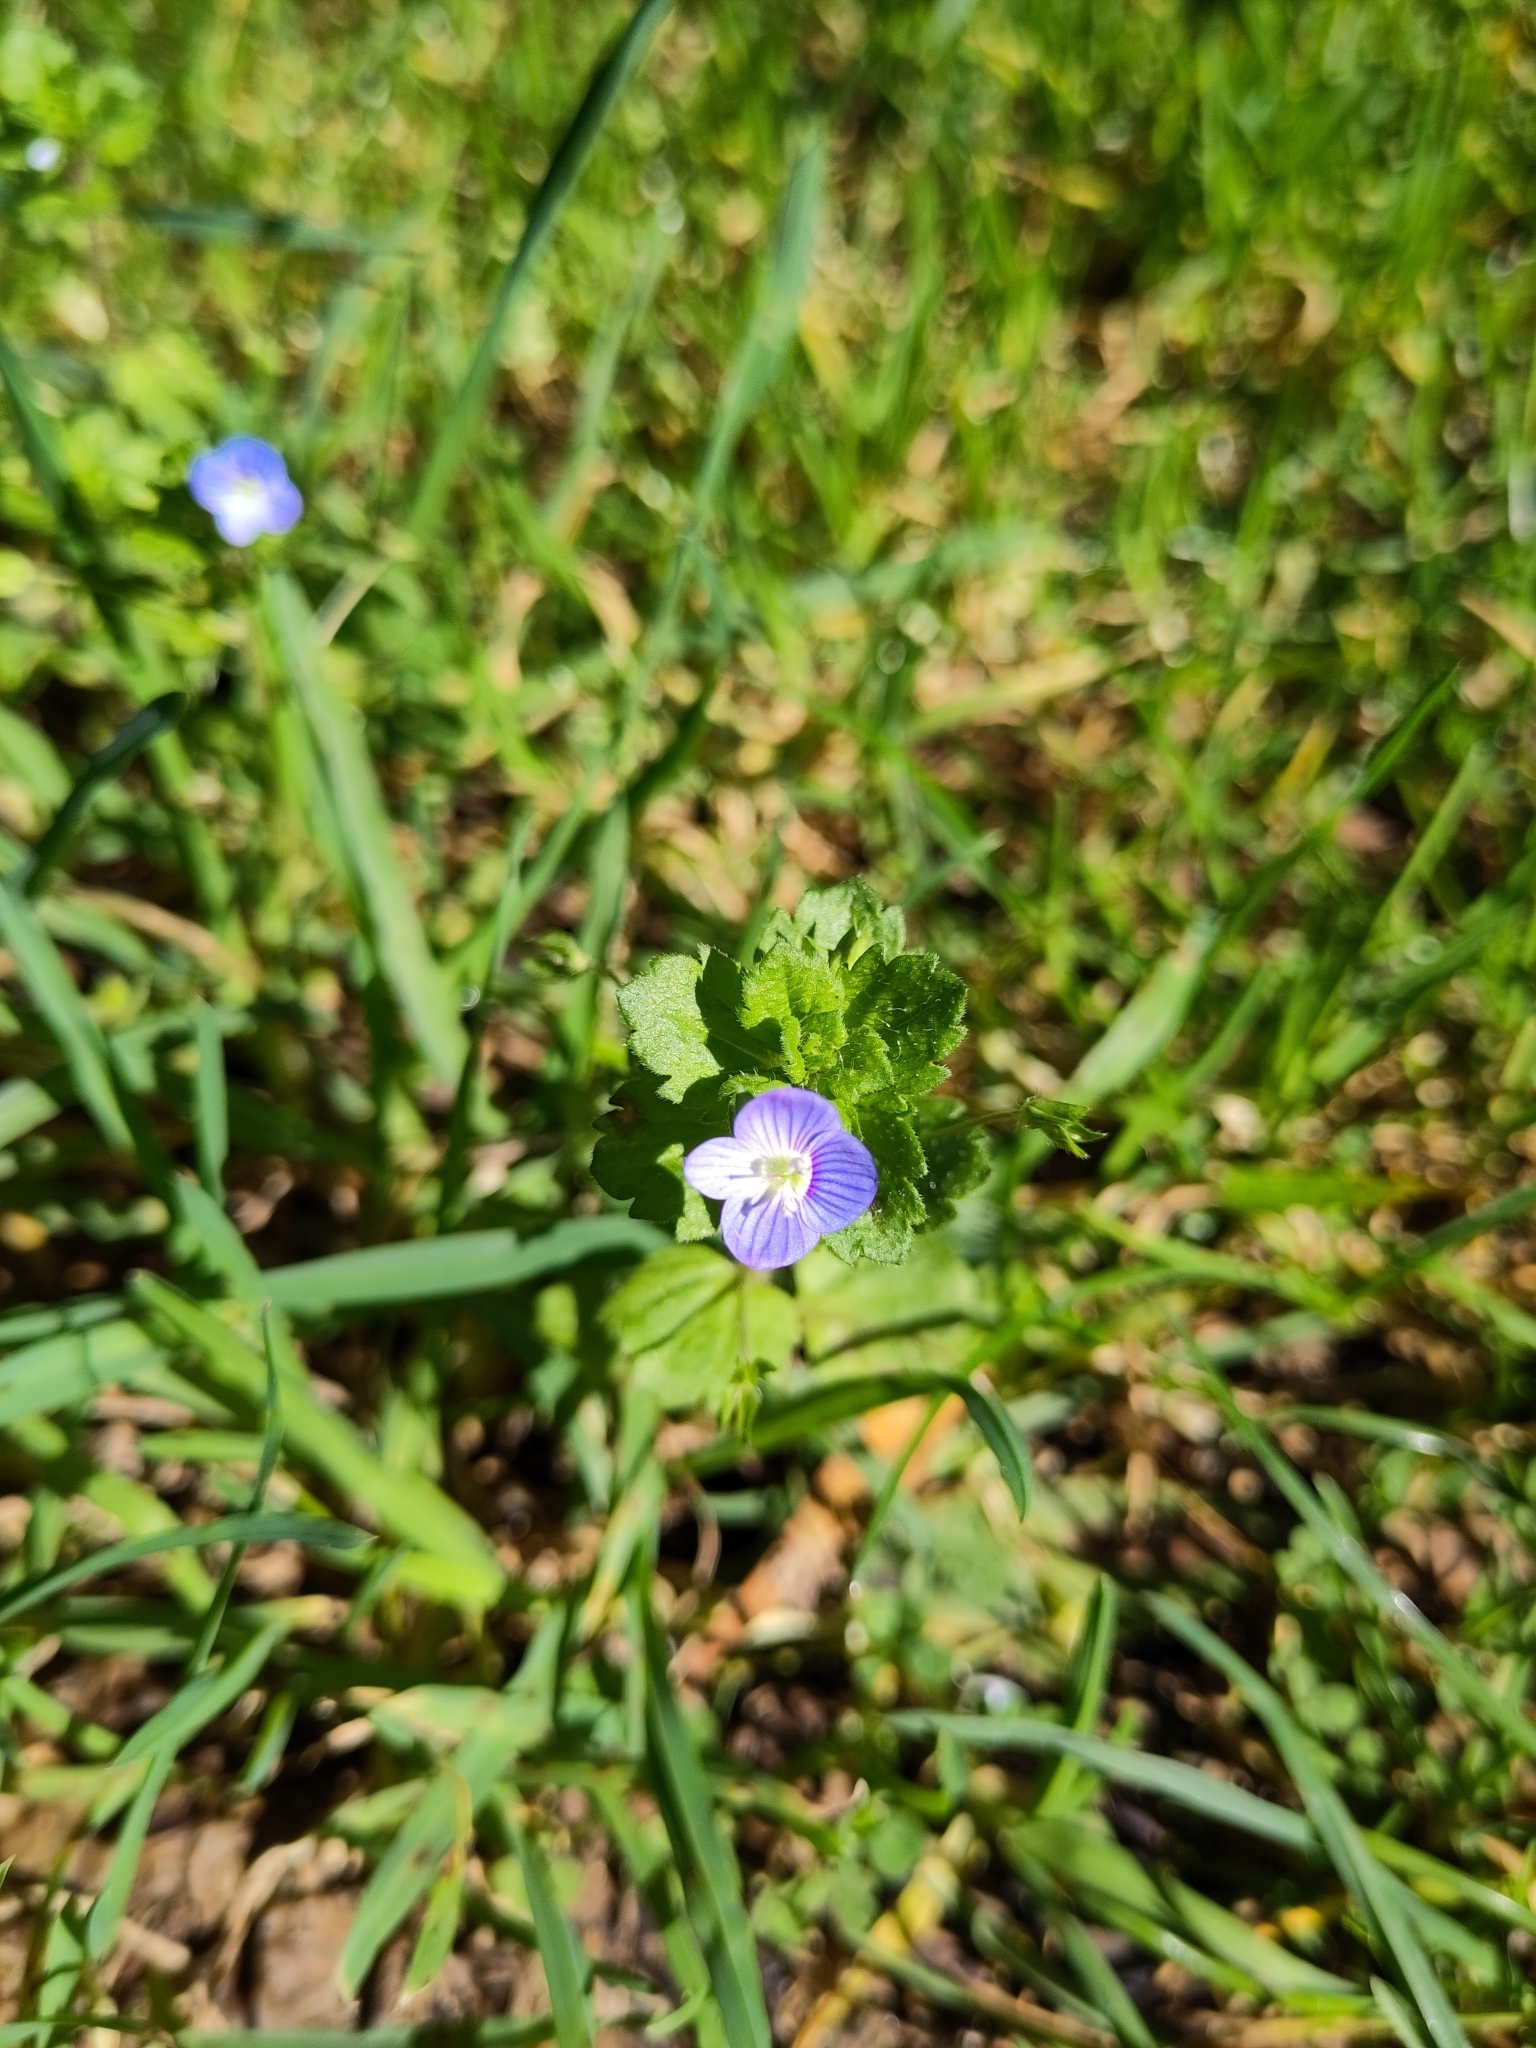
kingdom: Plantae
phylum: Tracheophyta
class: Magnoliopsida
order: Lamiales
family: Plantaginaceae
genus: Veronica
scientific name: Veronica persica
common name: Common field-speedwell
